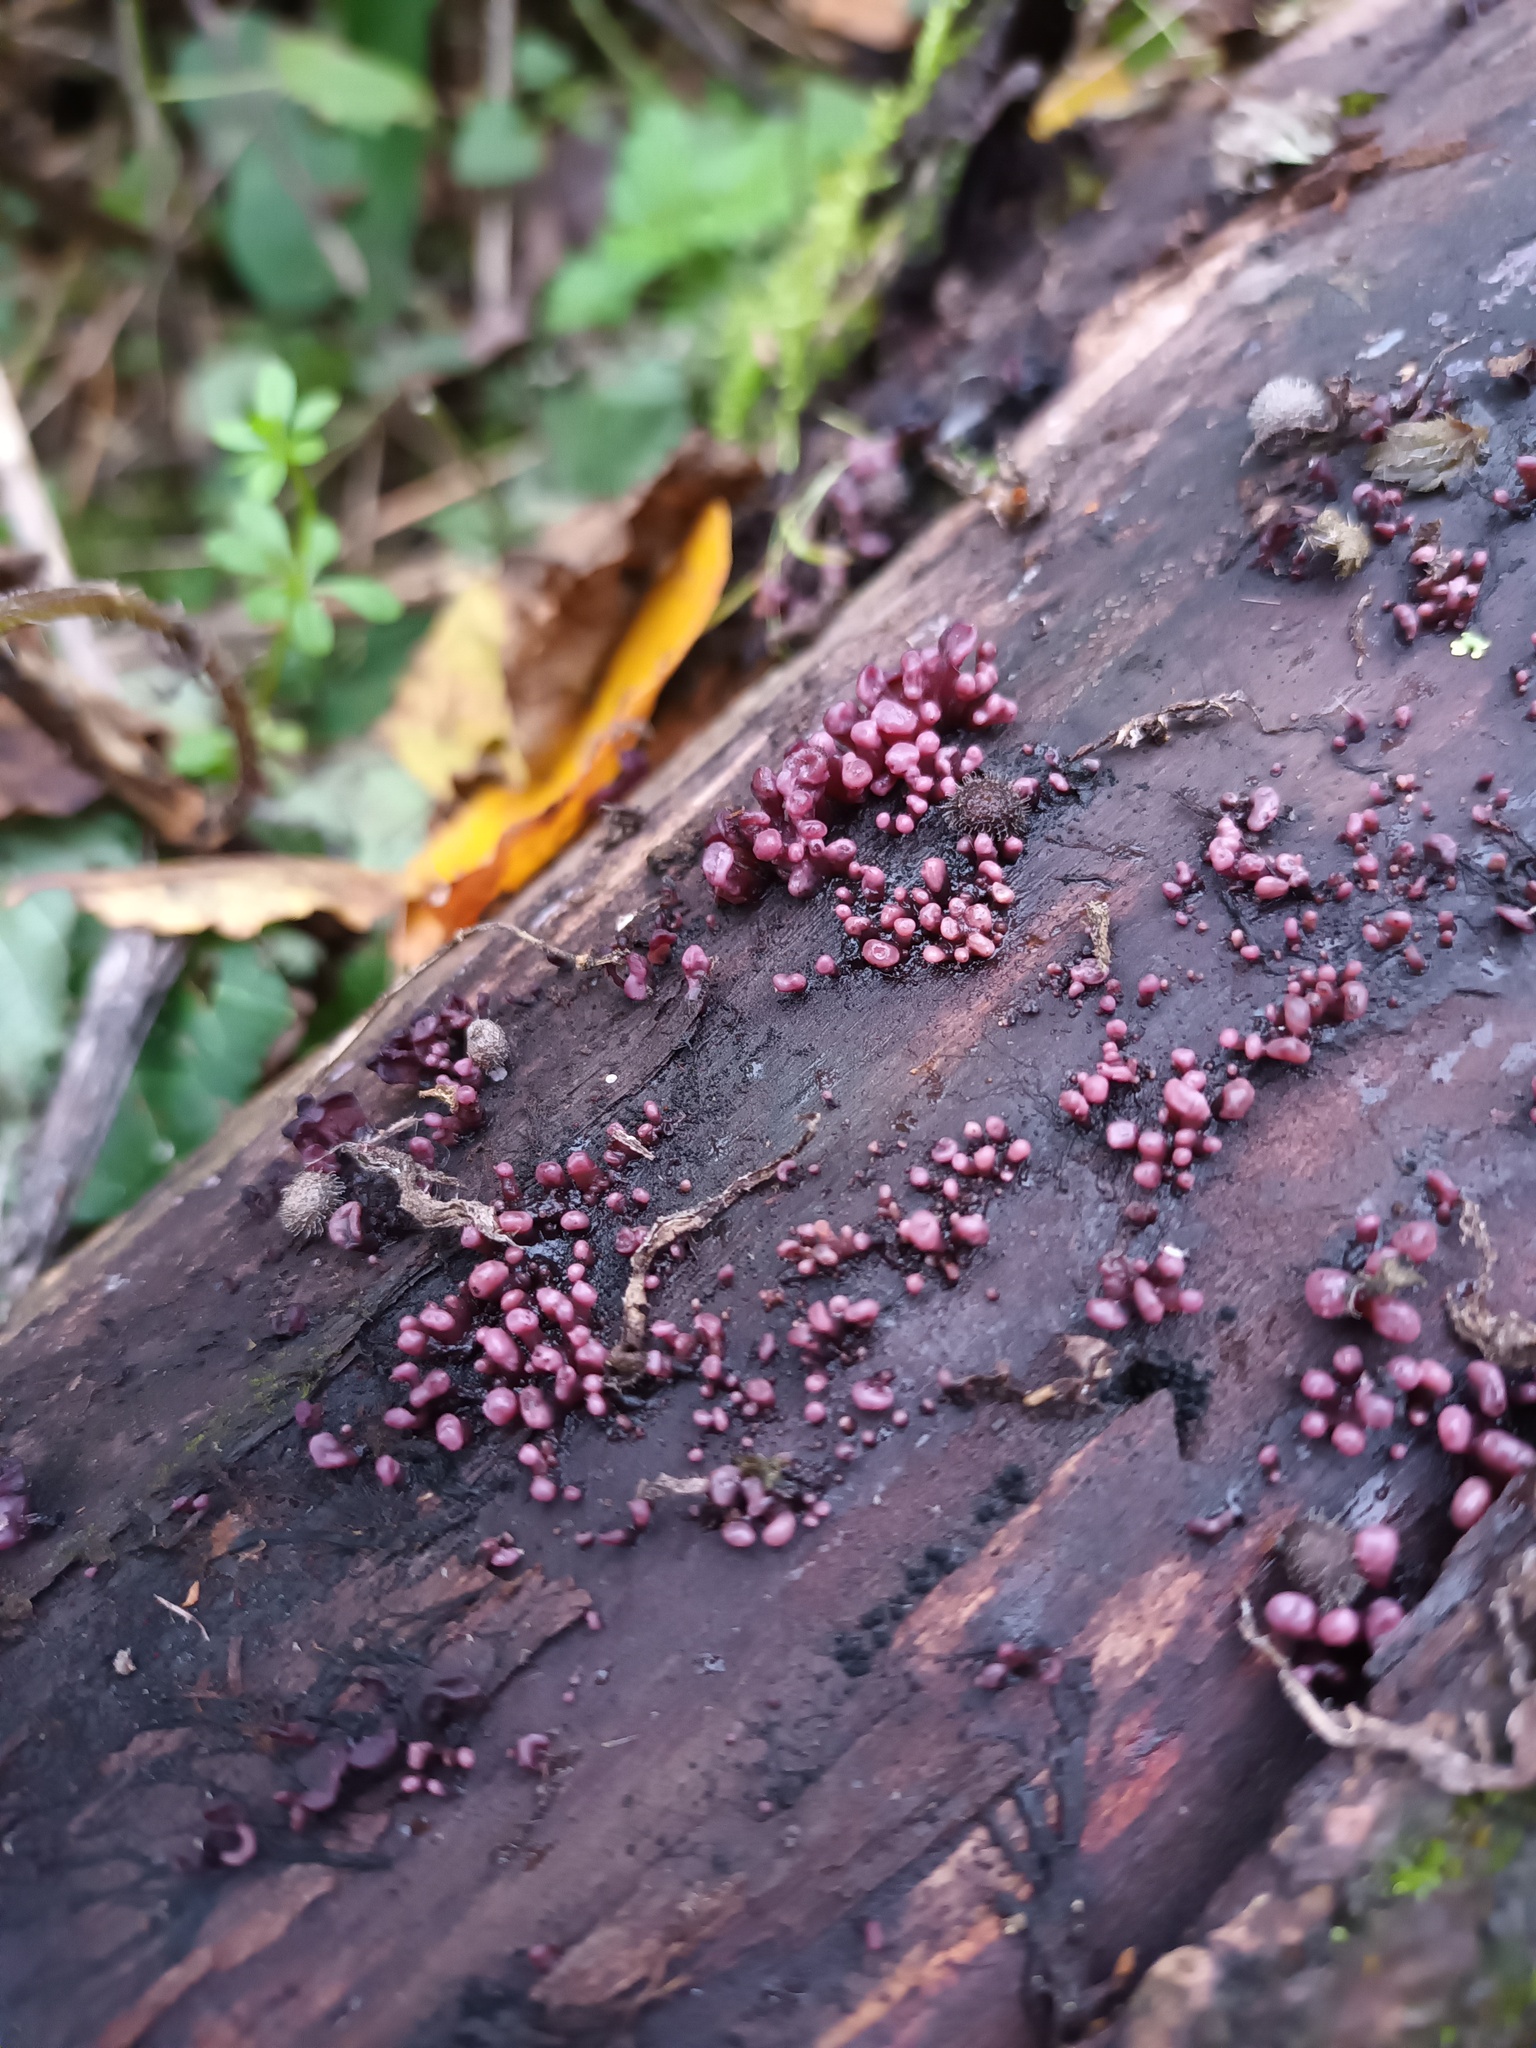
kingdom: Fungi
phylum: Ascomycota
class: Leotiomycetes
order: Helotiales
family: Gelatinodiscaceae
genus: Ascocoryne
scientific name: Ascocoryne sarcoides
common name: Purple jellydisc
